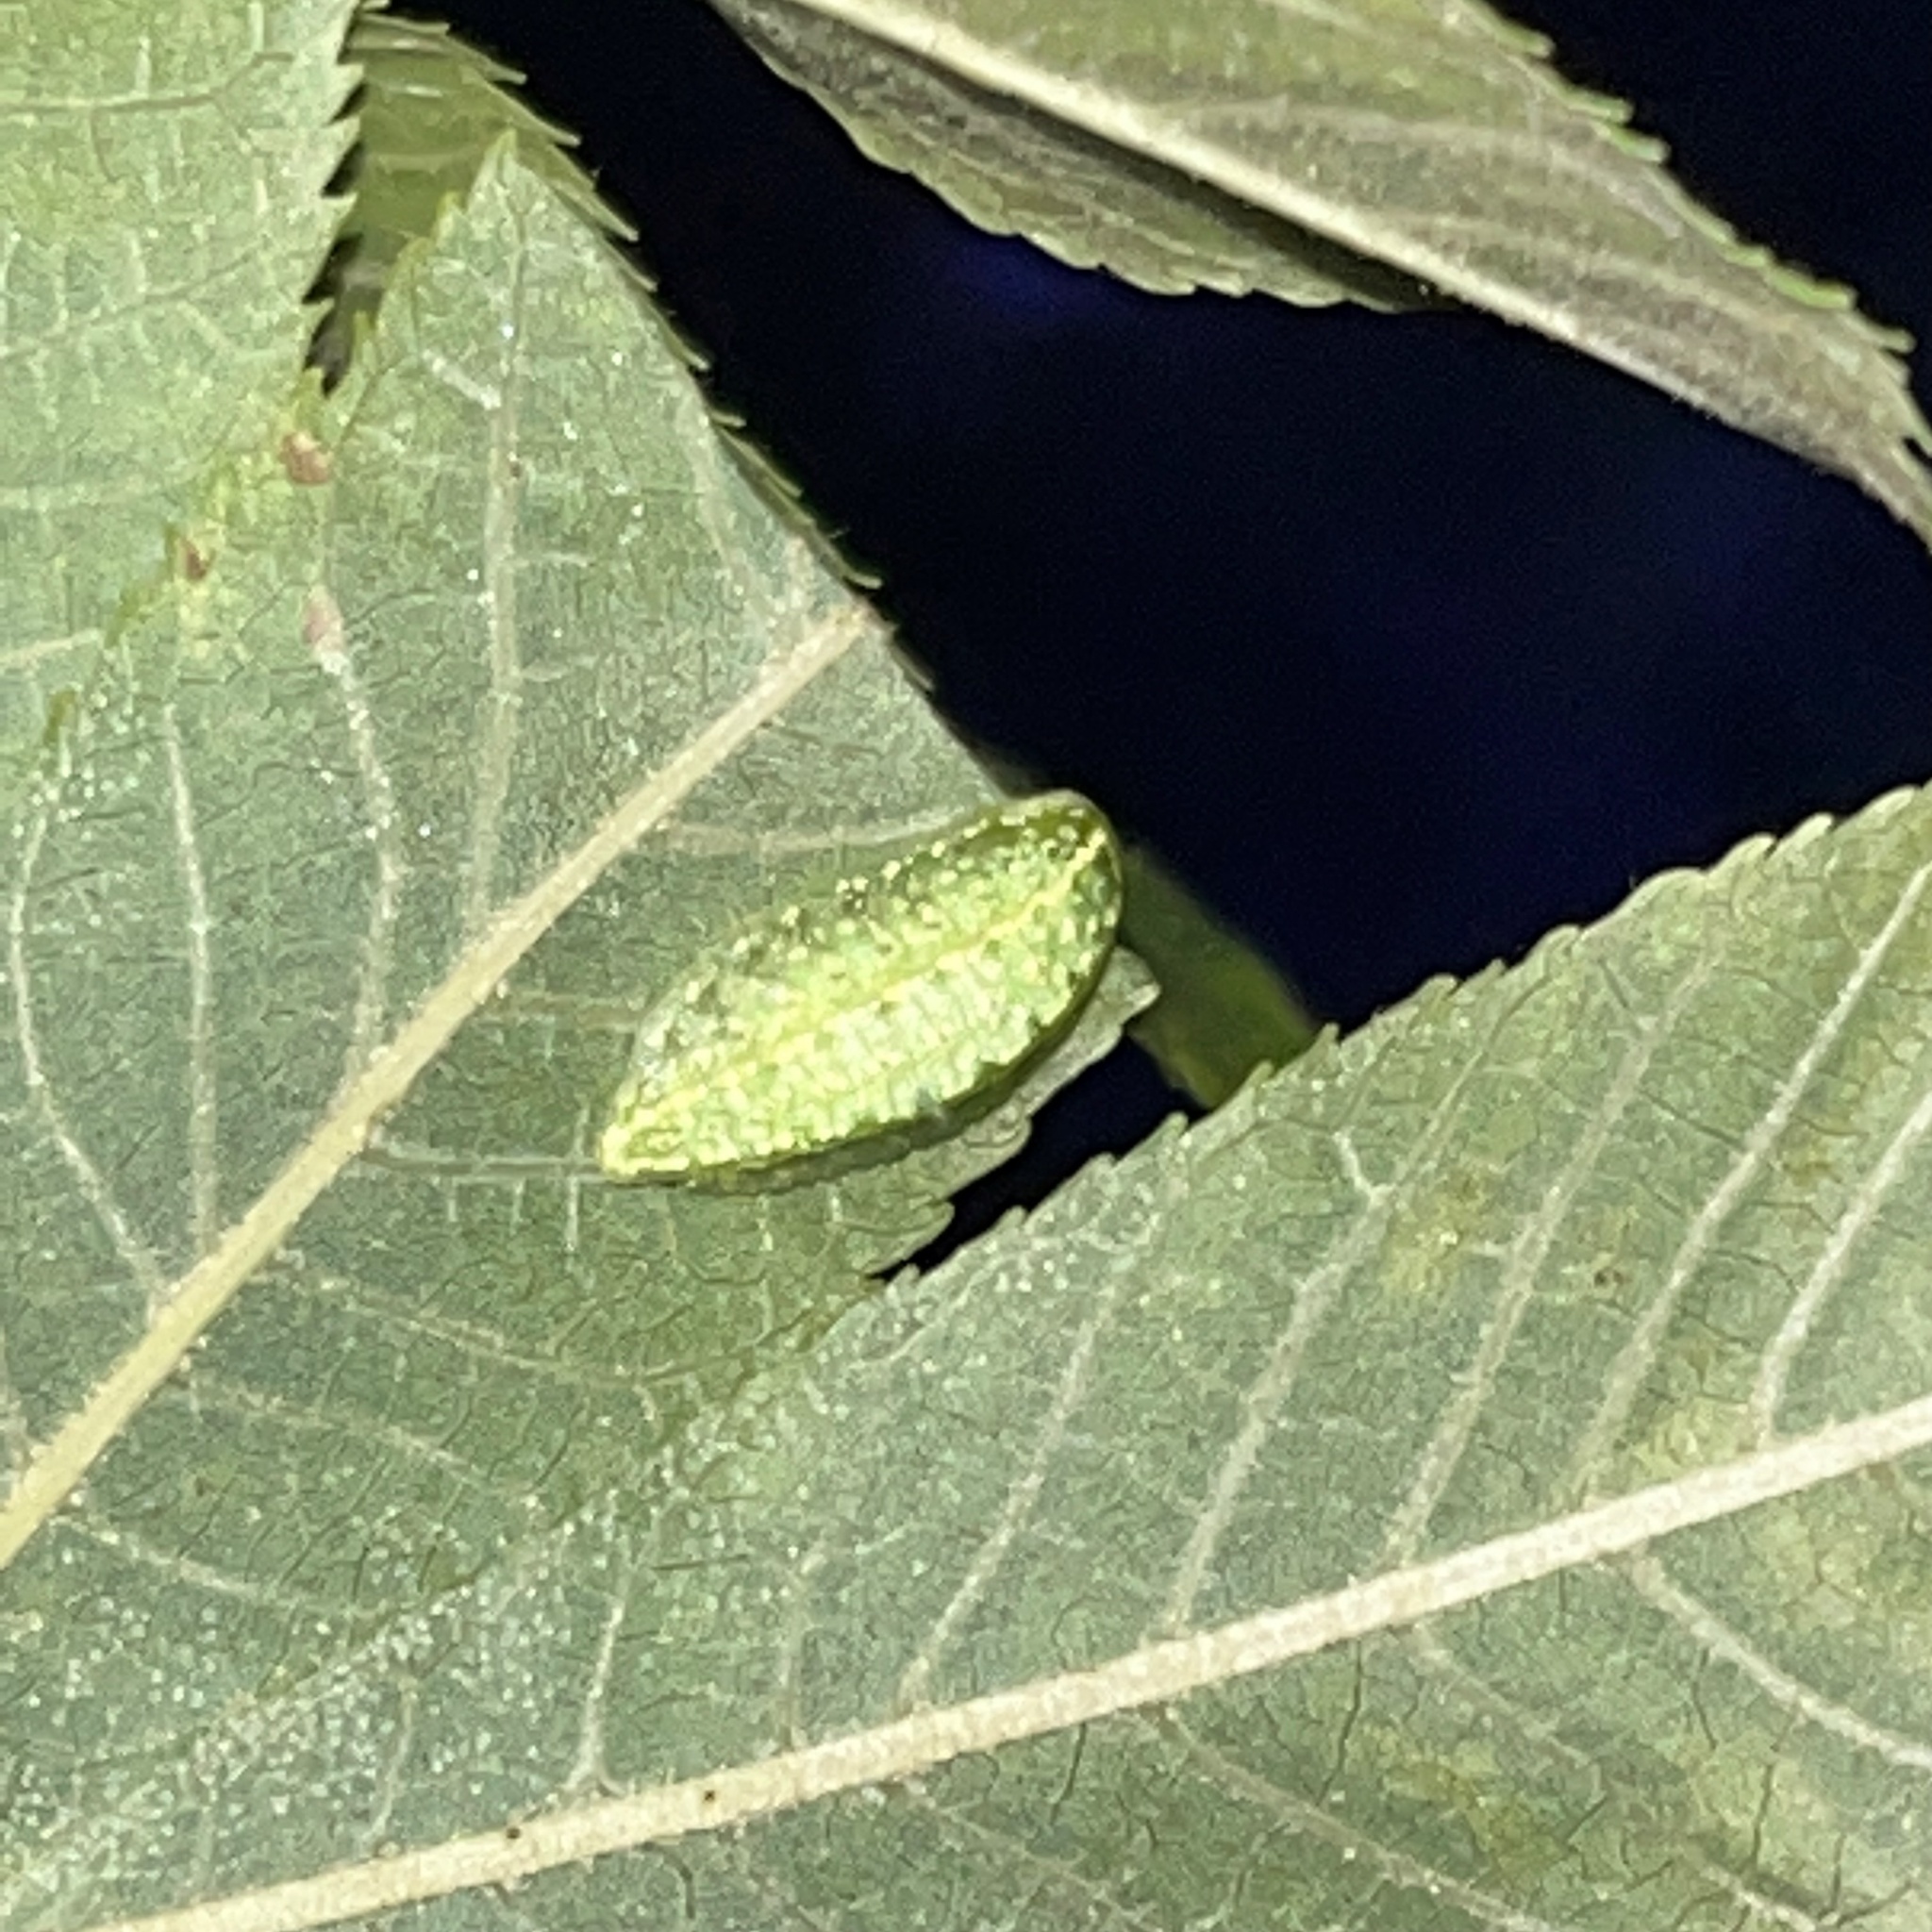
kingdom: Animalia
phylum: Arthropoda
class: Insecta
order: Lepidoptera
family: Limacodidae
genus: Lithacodes
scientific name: Lithacodes fasciola
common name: Yellow-shouldered slug moth
